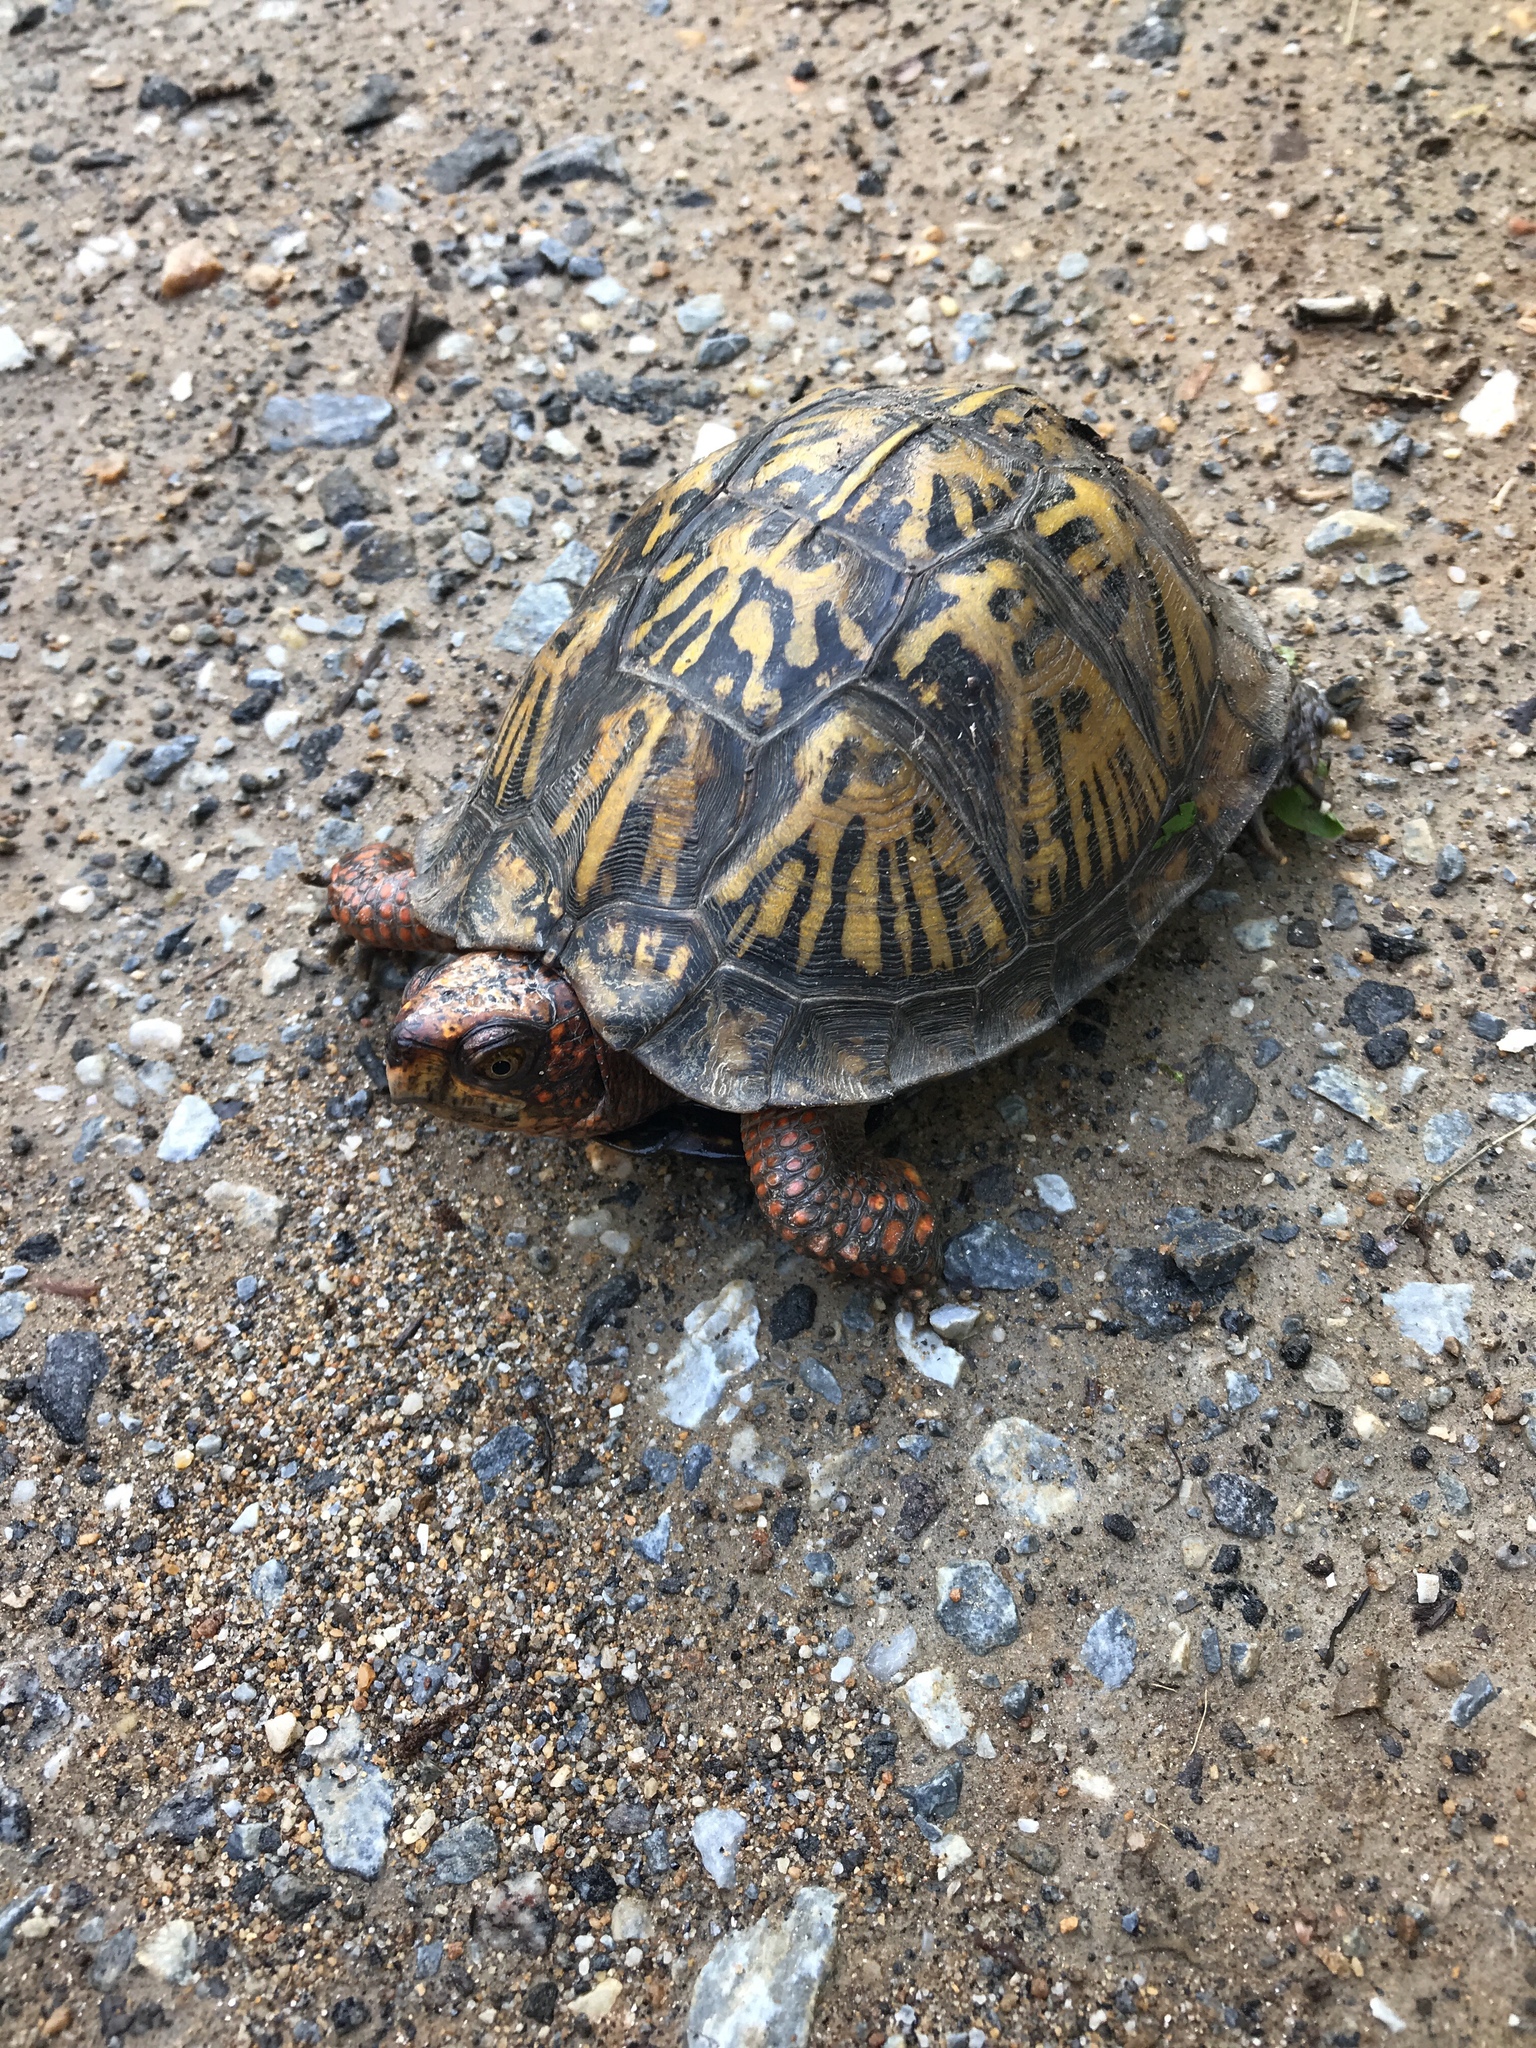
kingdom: Animalia
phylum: Chordata
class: Testudines
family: Emydidae
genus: Terrapene
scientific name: Terrapene carolina
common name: Common box turtle
